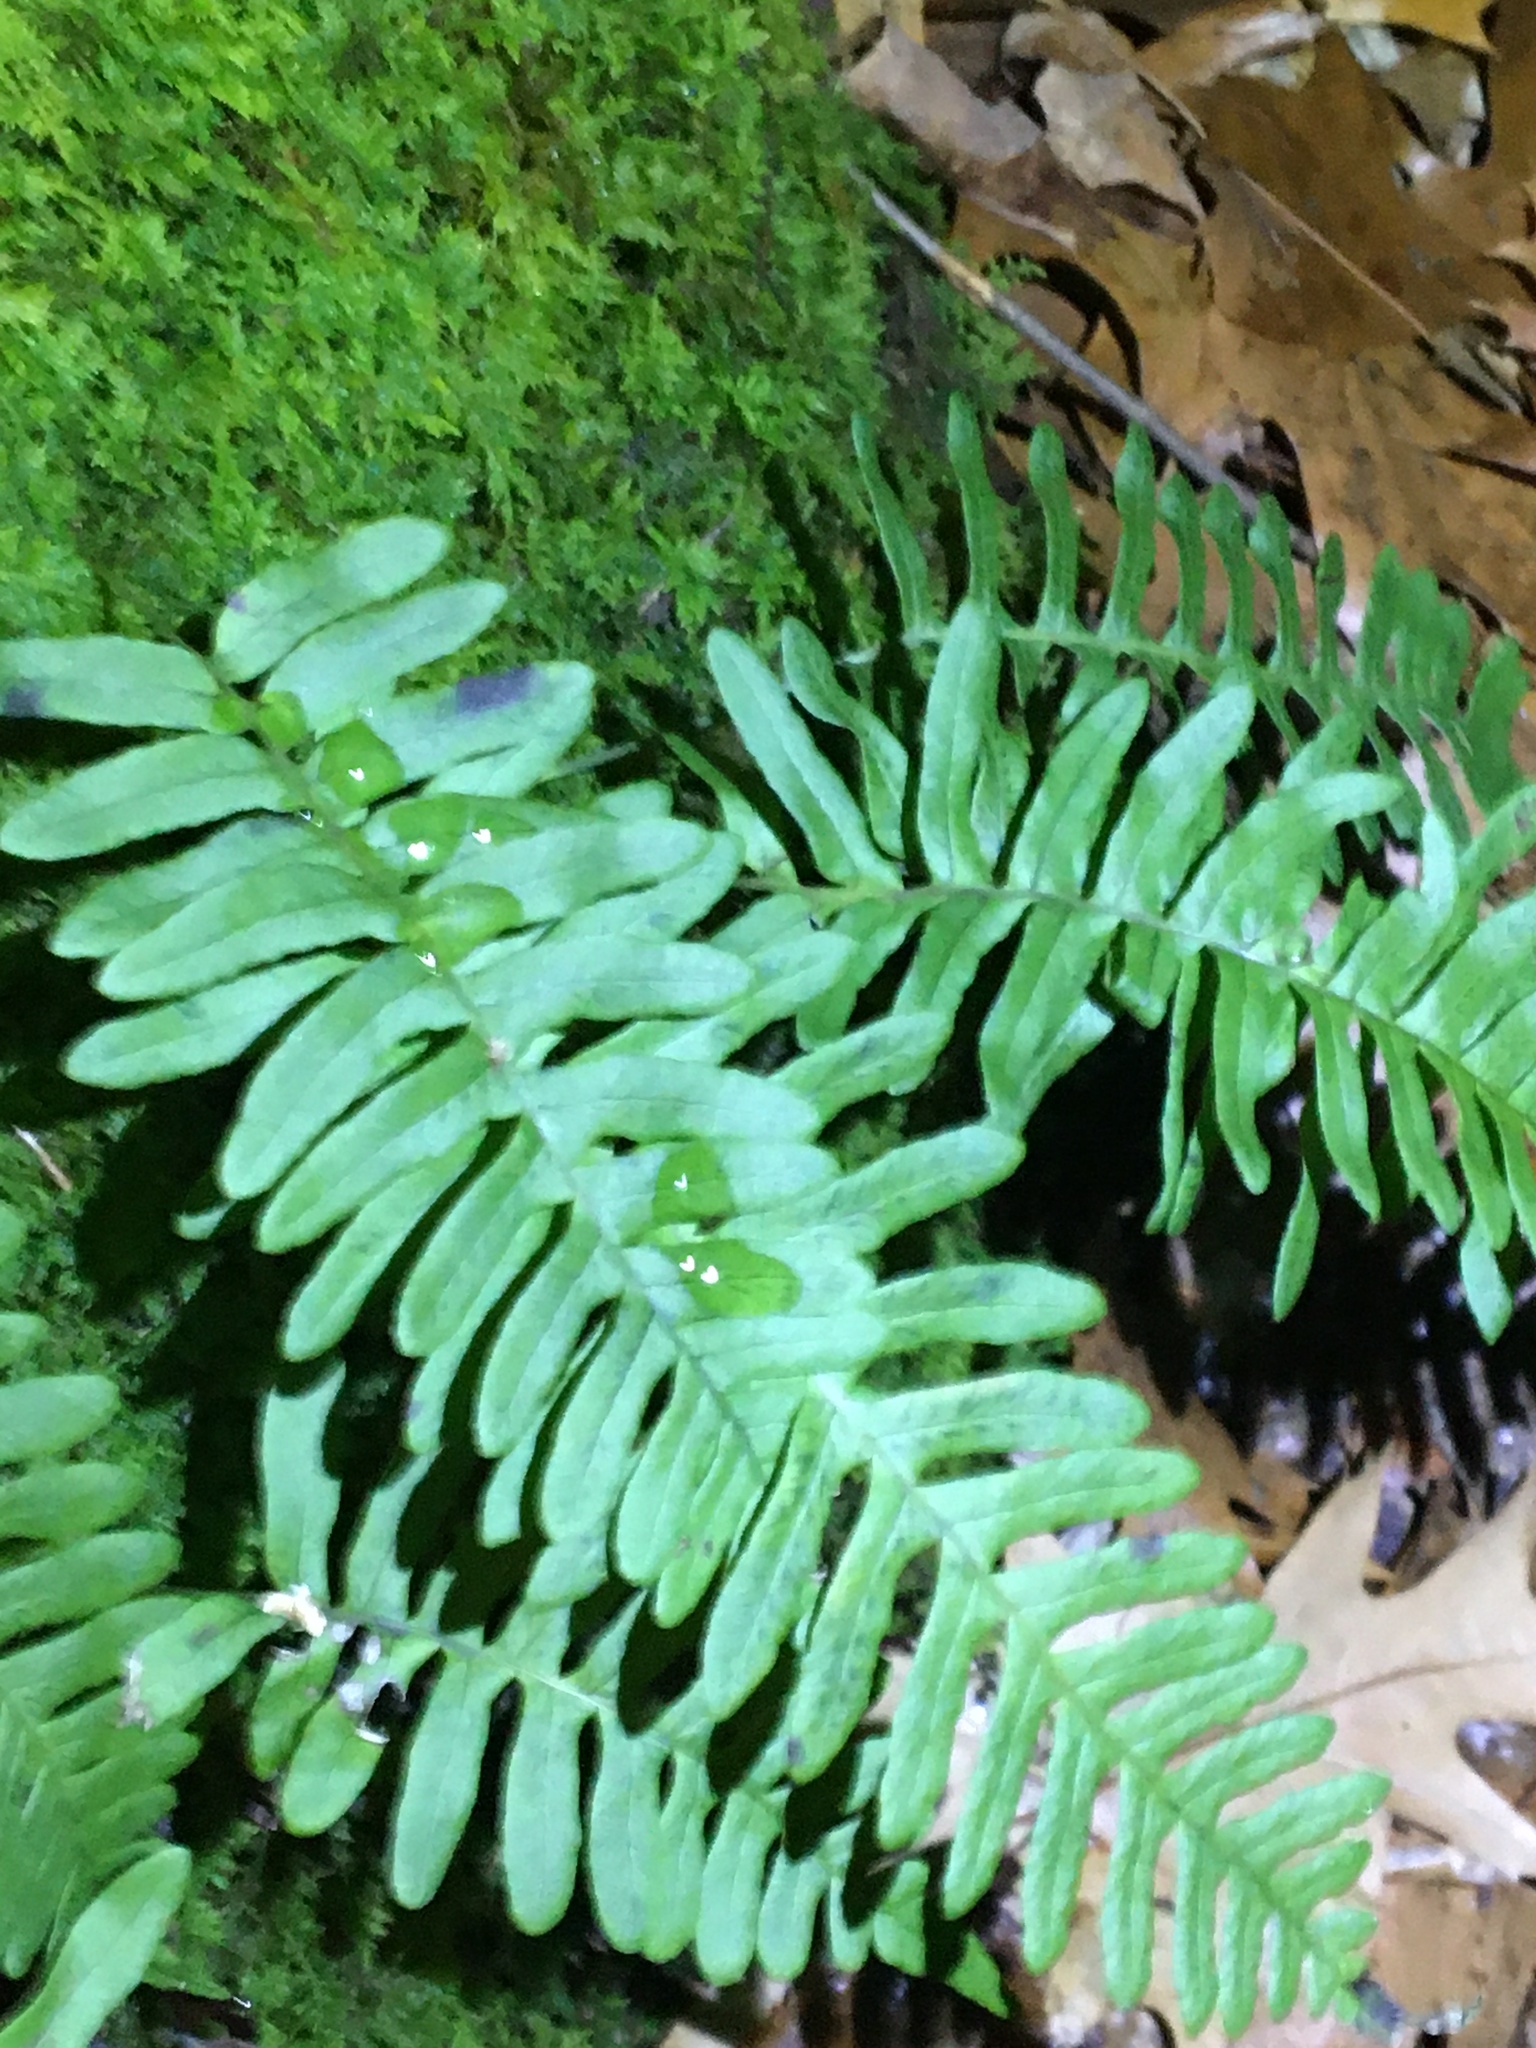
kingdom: Plantae
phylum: Tracheophyta
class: Polypodiopsida
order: Polypodiales
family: Polypodiaceae
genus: Polypodium
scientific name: Polypodium
